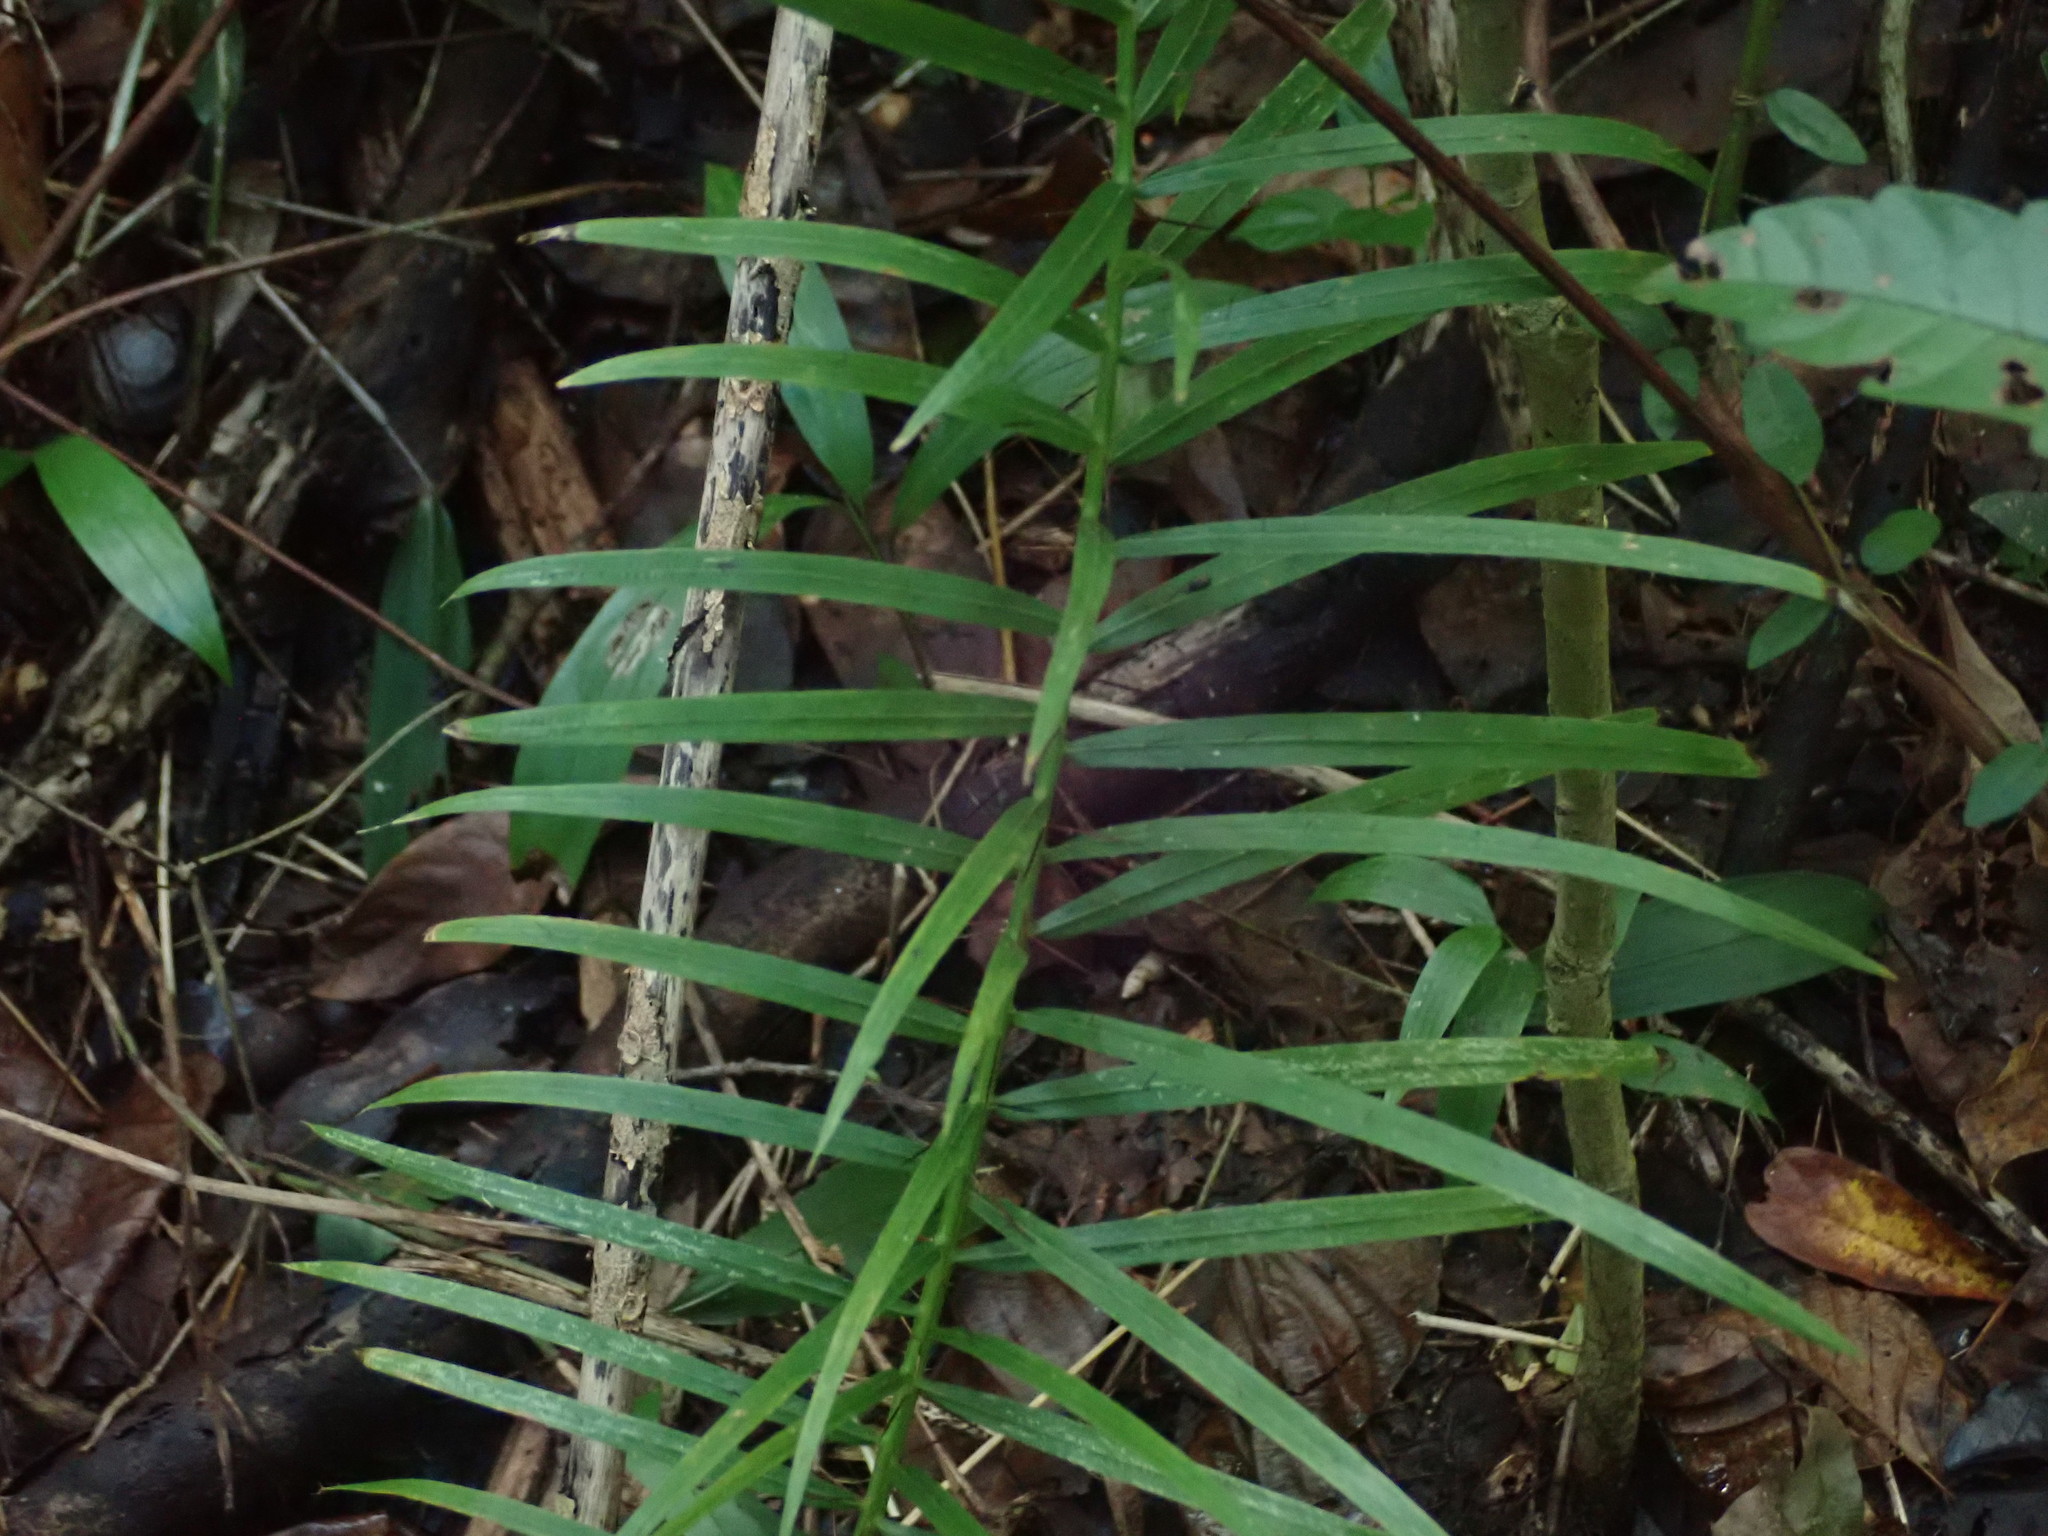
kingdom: Plantae
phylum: Tracheophyta
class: Liliopsida
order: Arecales
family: Arecaceae
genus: Acrocomia
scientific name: Acrocomia aculeata
